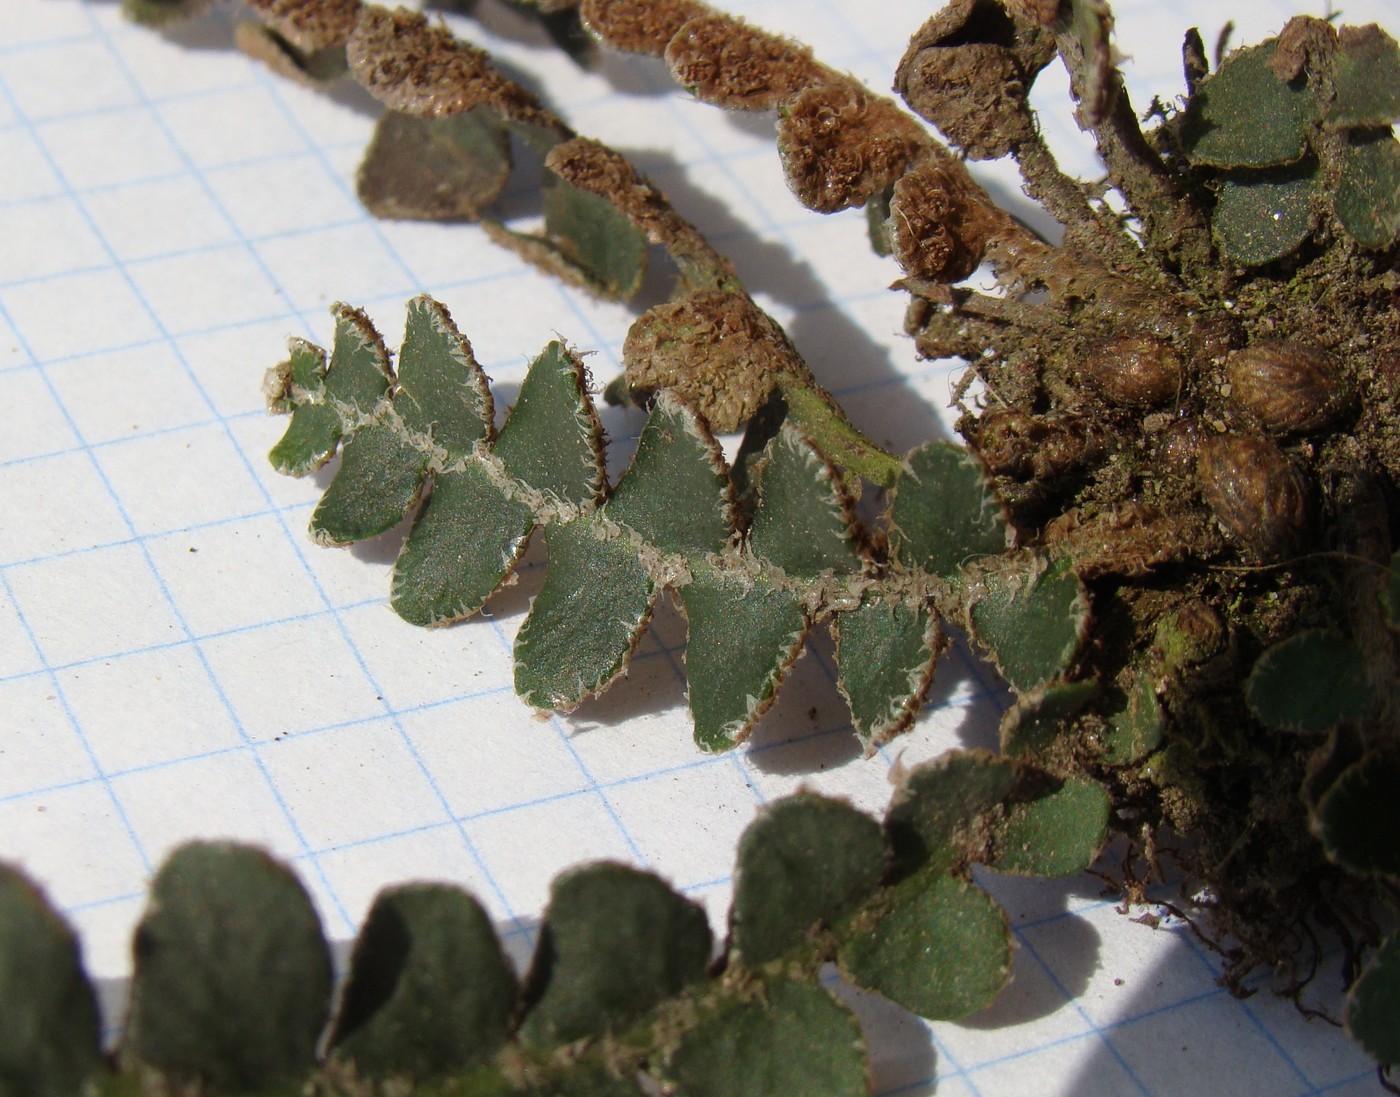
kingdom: Plantae
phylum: Tracheophyta
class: Polypodiopsida
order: Polypodiales
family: Aspleniaceae
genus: Asplenium
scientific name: Asplenium ceterach
